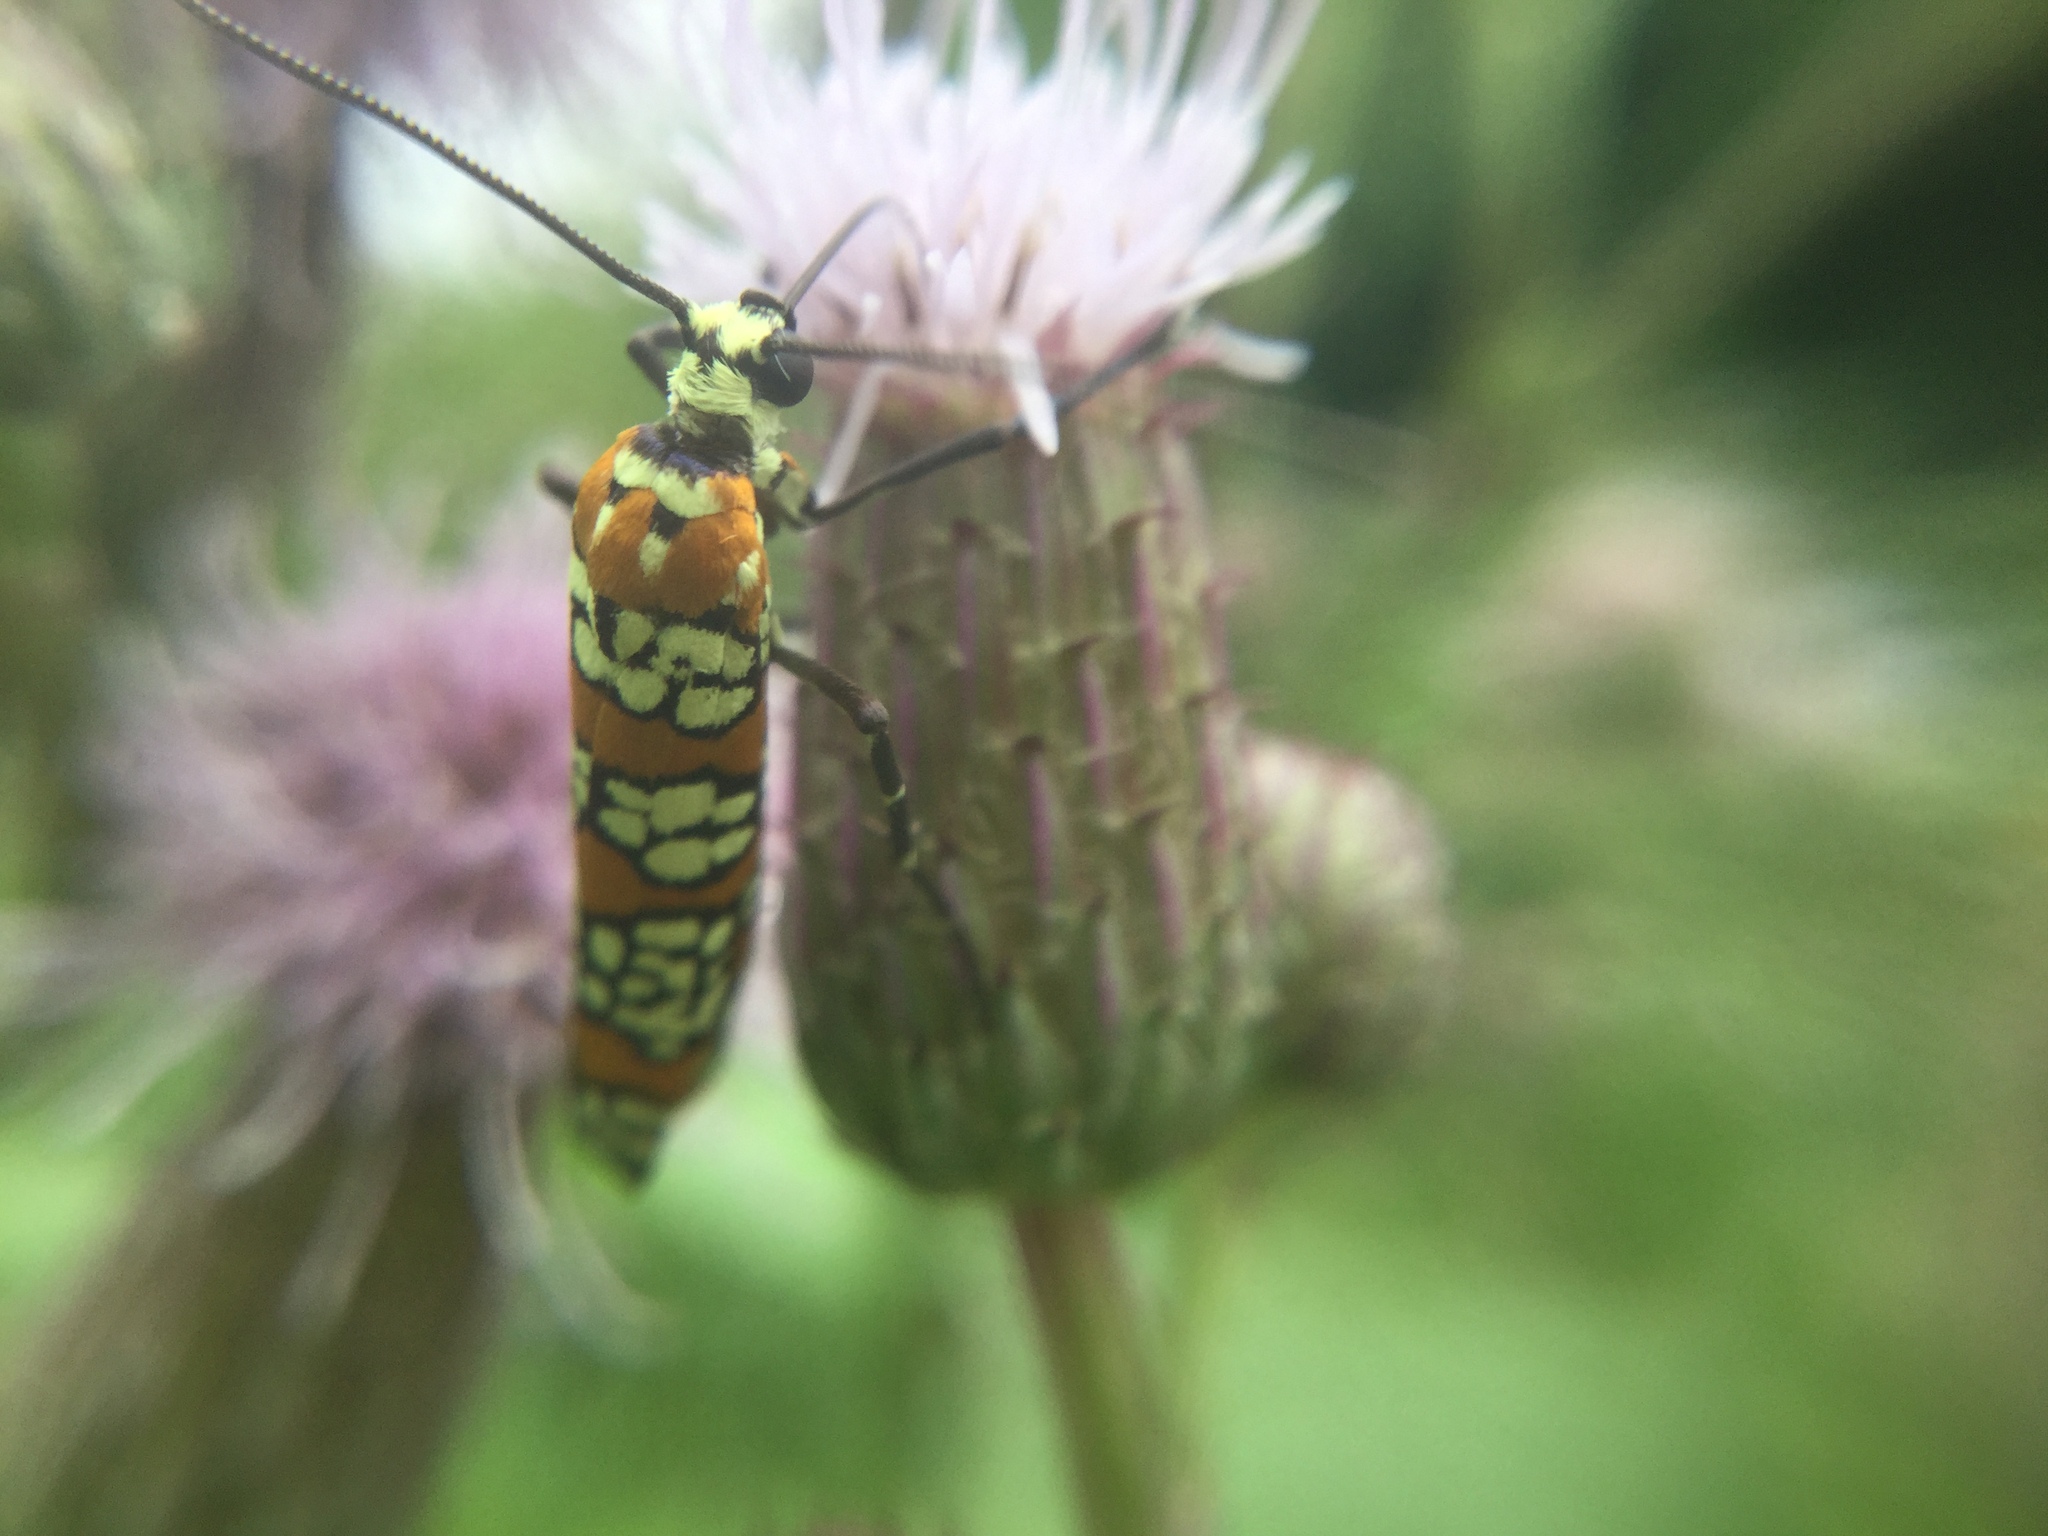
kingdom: Animalia
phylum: Arthropoda
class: Insecta
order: Lepidoptera
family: Attevidae
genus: Atteva
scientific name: Atteva punctella
